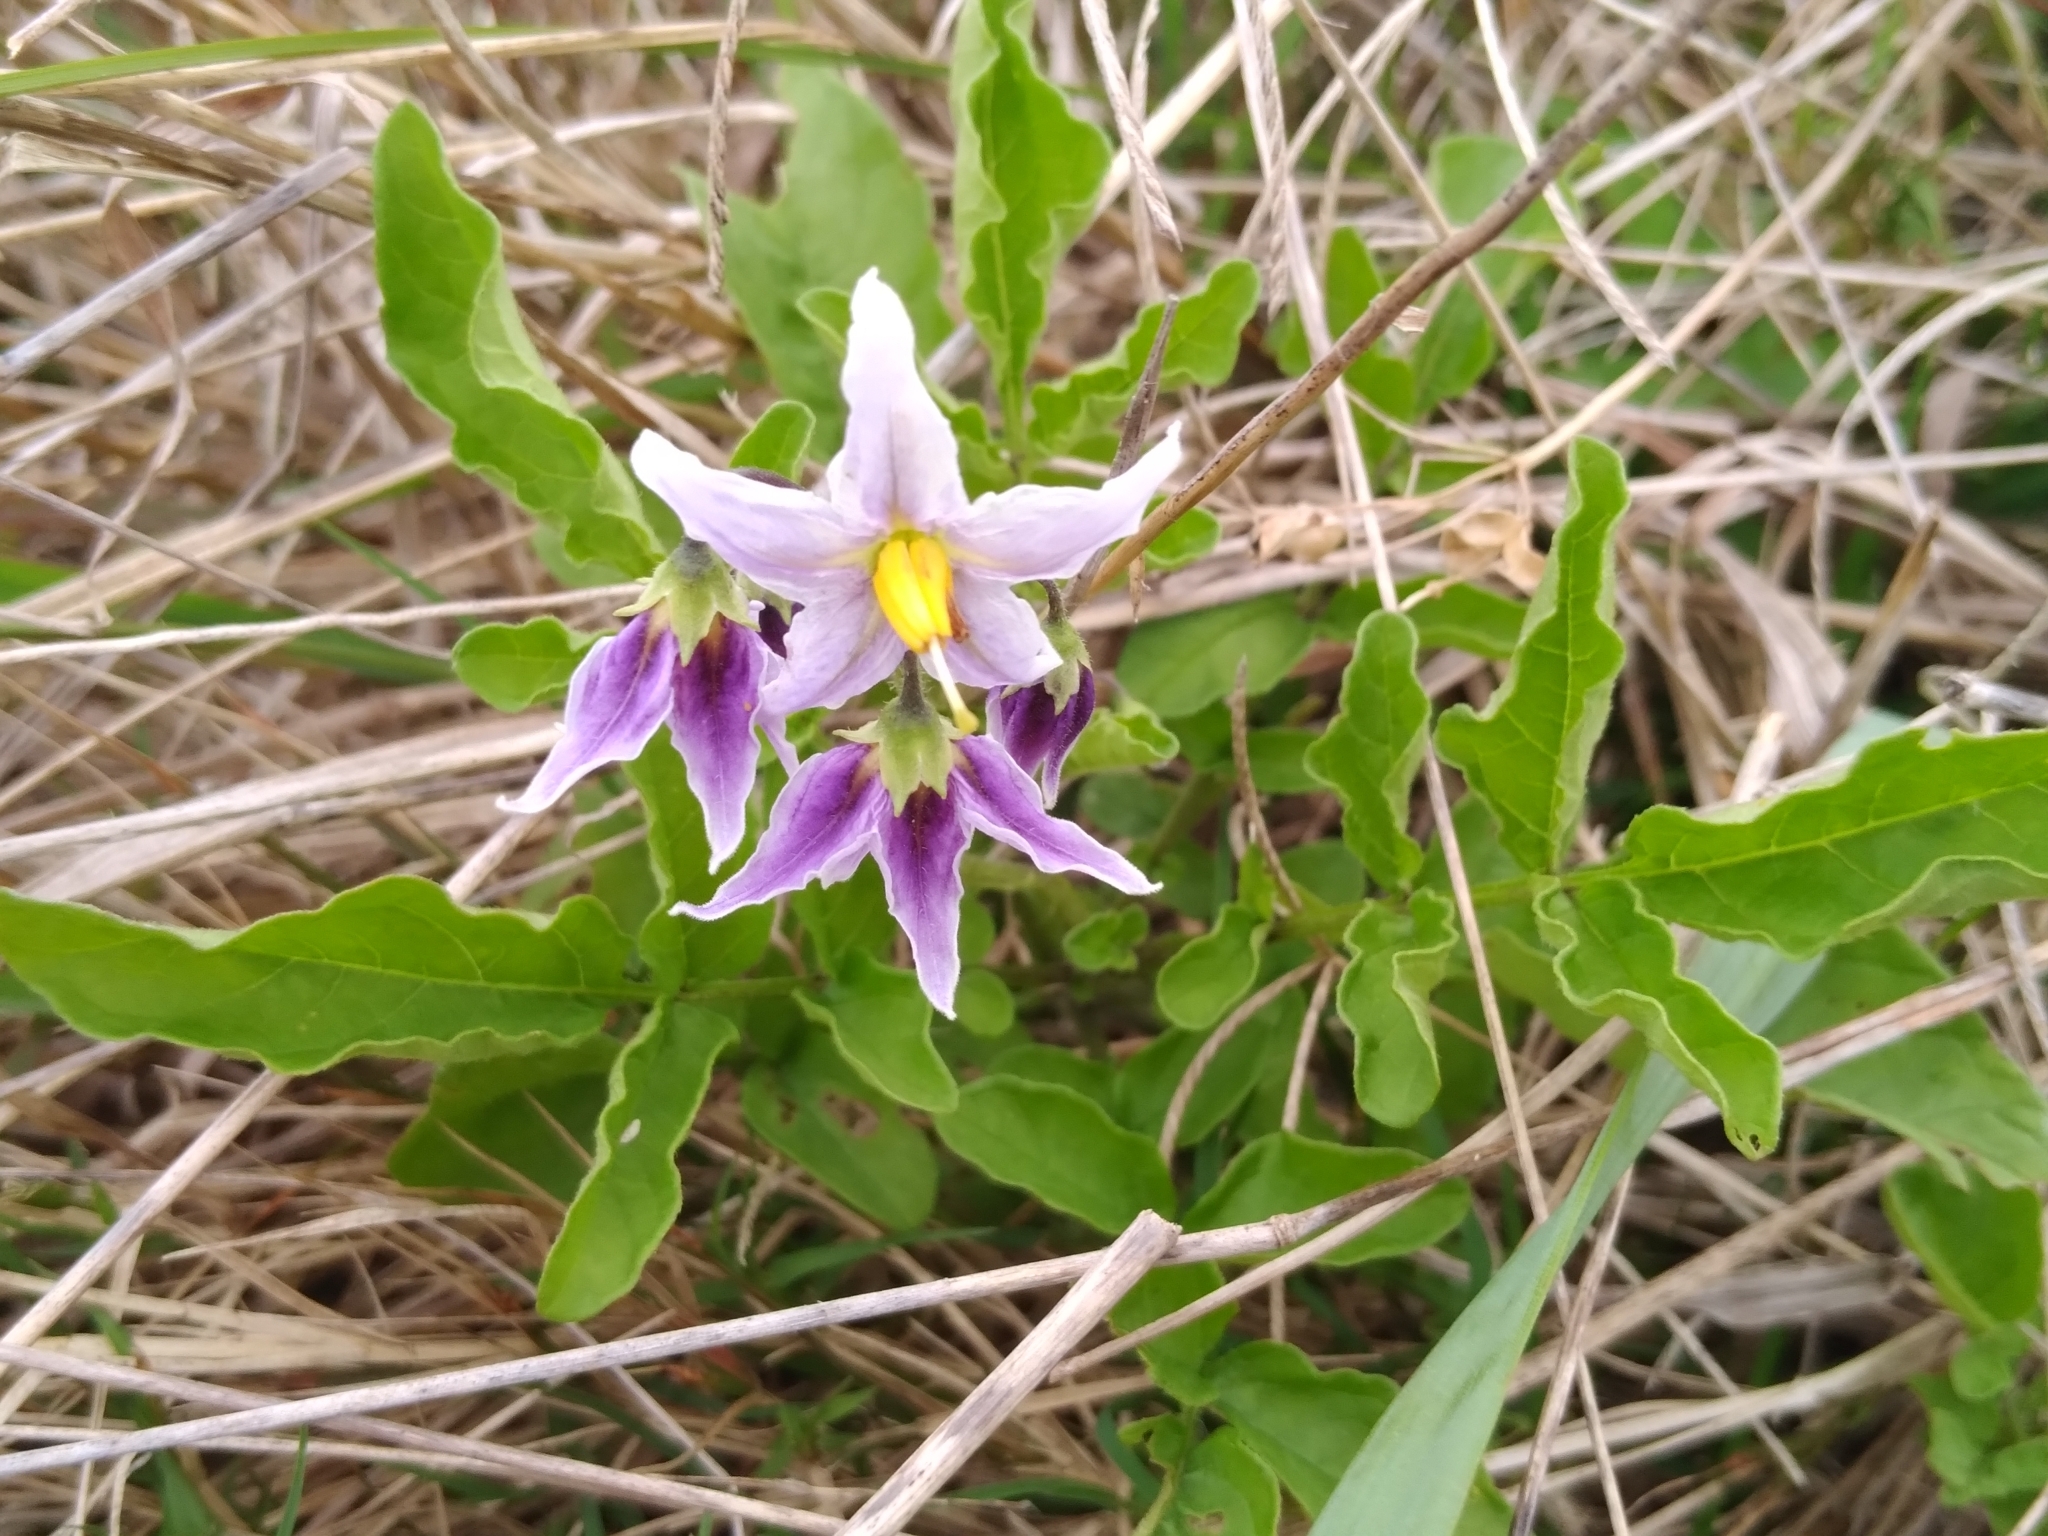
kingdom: Plantae
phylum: Tracheophyta
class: Magnoliopsida
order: Solanales
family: Solanaceae
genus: Solanum
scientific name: Solanum commersonii
